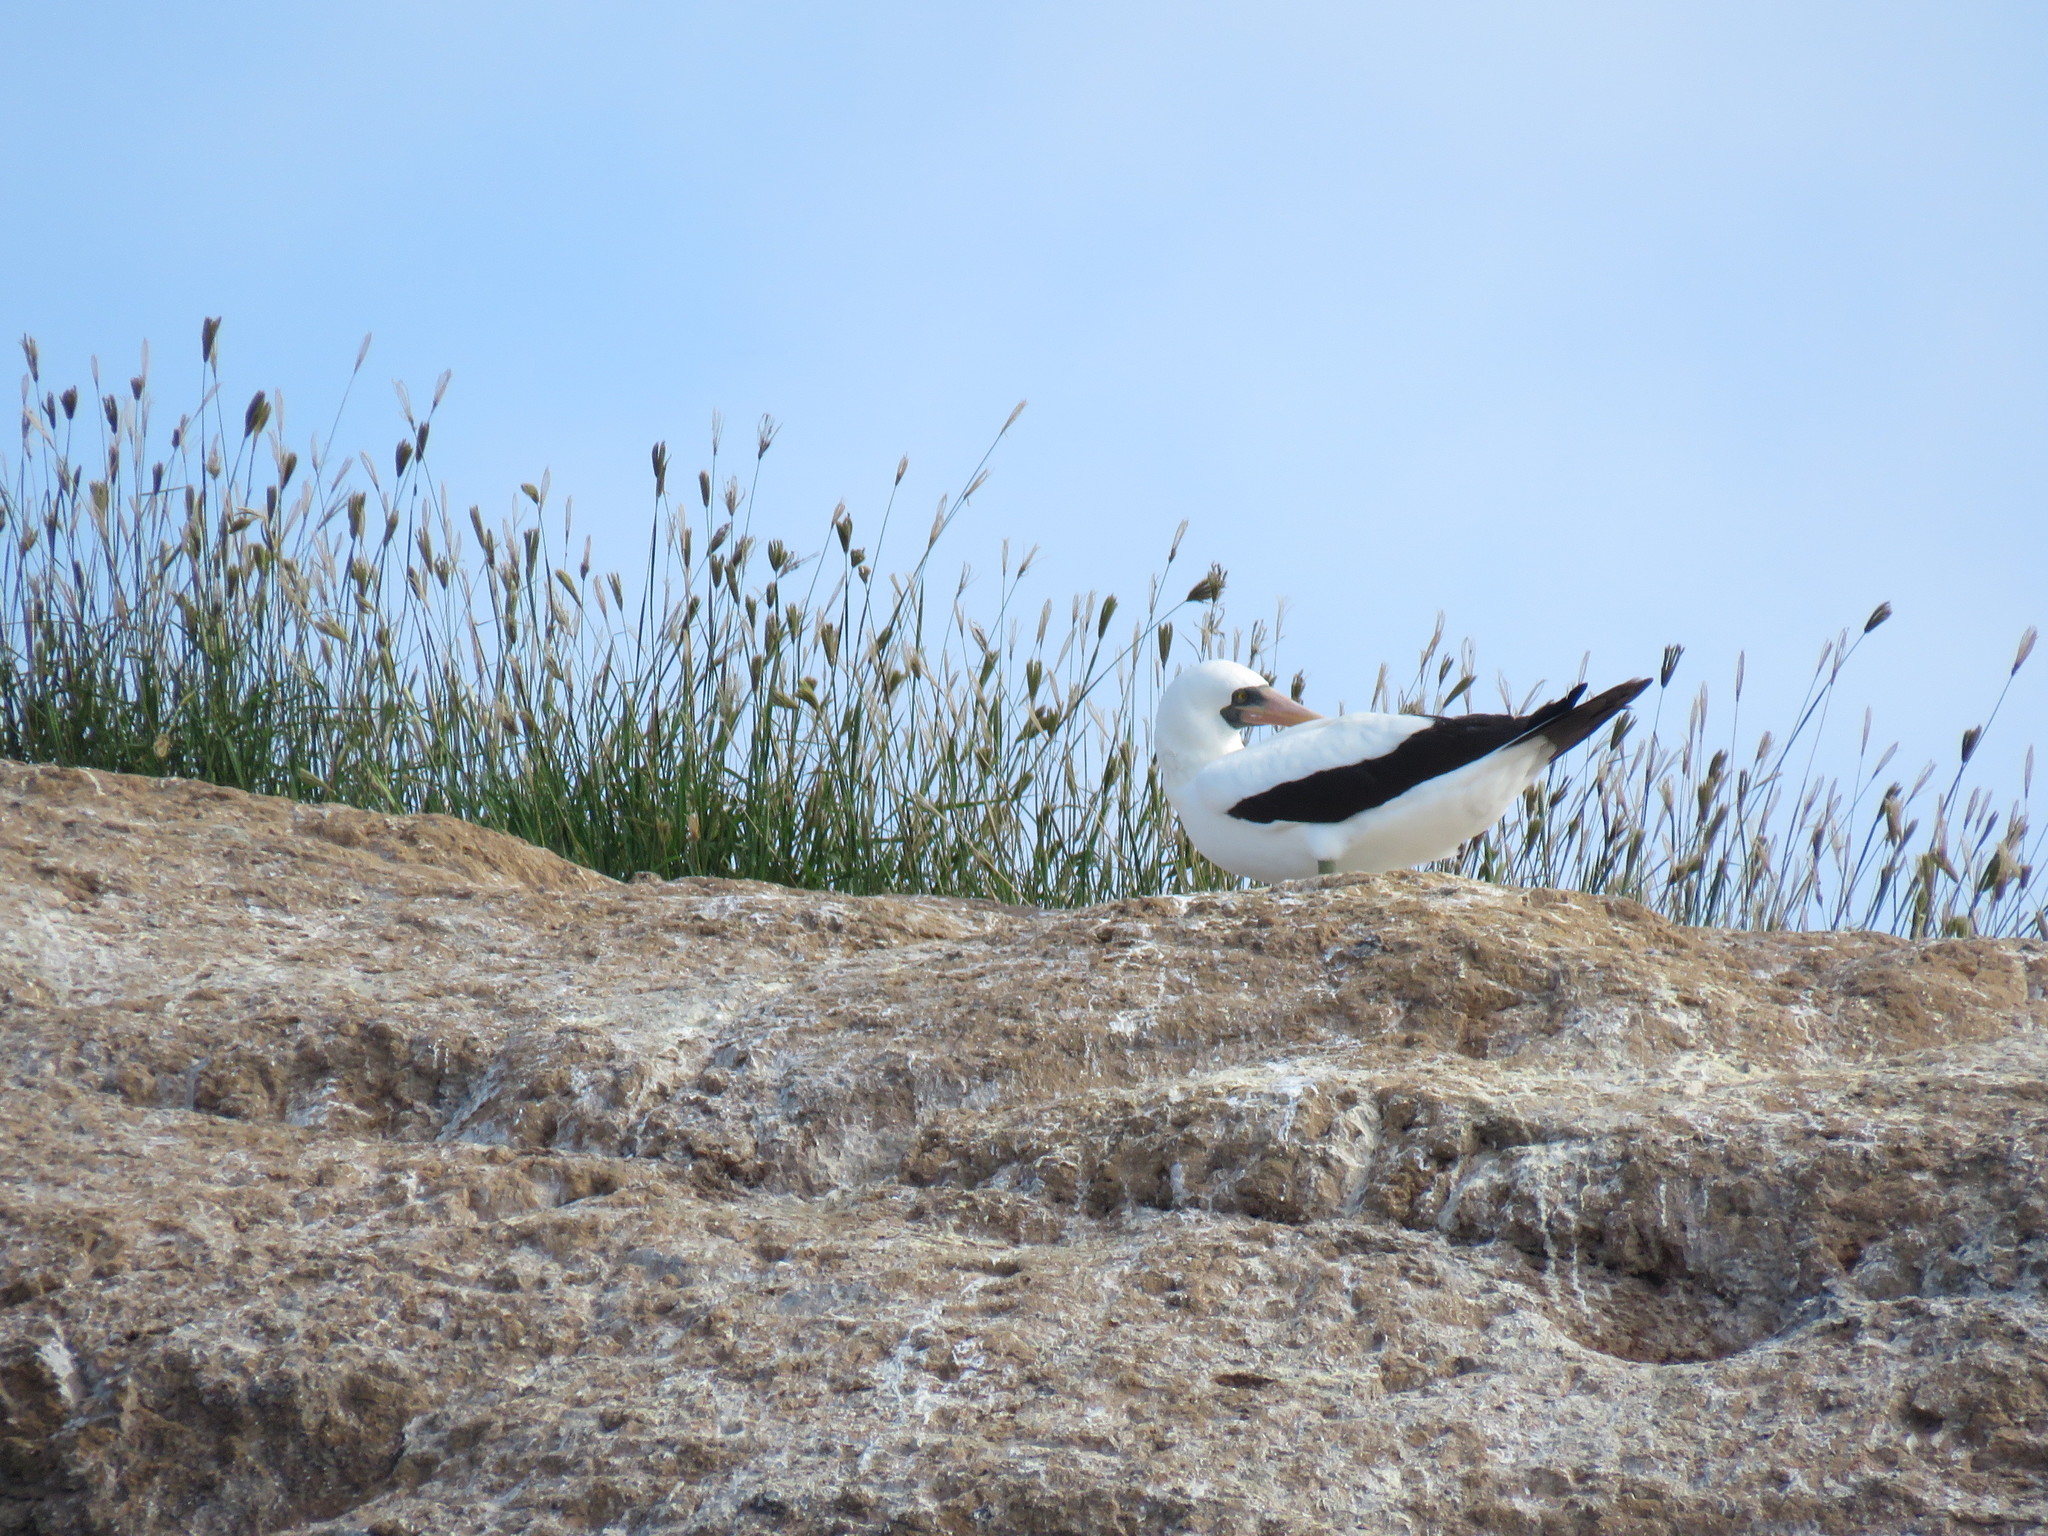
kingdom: Animalia
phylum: Chordata
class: Aves
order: Suliformes
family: Sulidae
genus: Sula
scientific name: Sula granti
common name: Nazca booby
